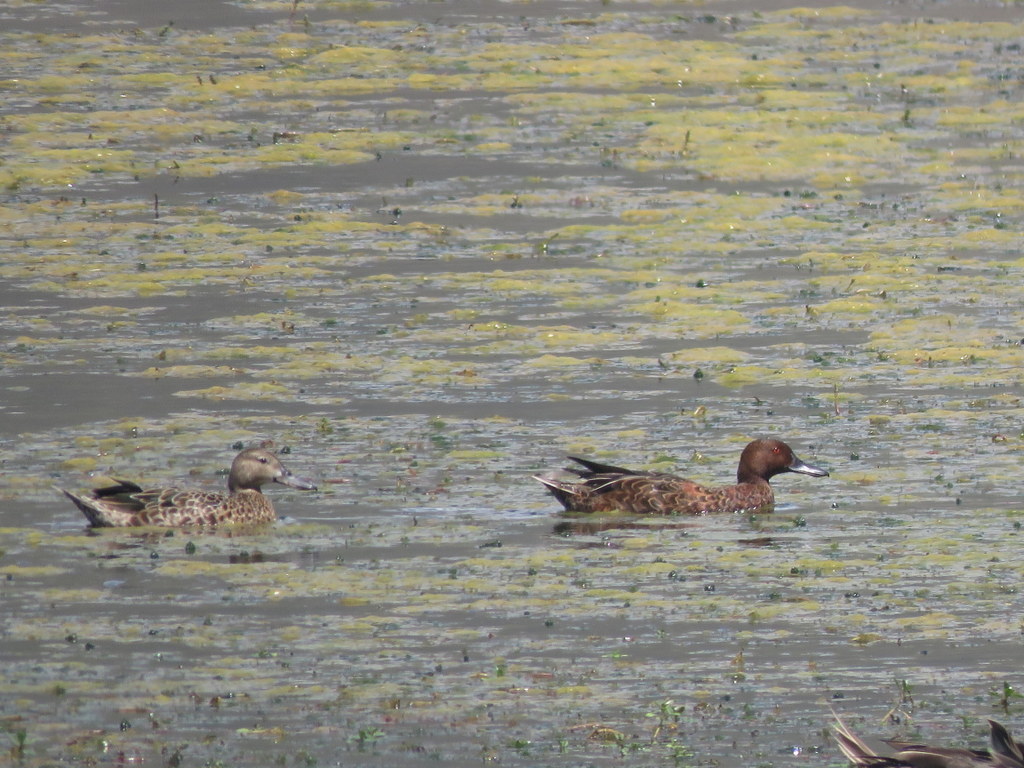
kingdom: Animalia
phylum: Chordata
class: Aves
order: Anseriformes
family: Anatidae
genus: Spatula
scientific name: Spatula cyanoptera
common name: Cinnamon teal
